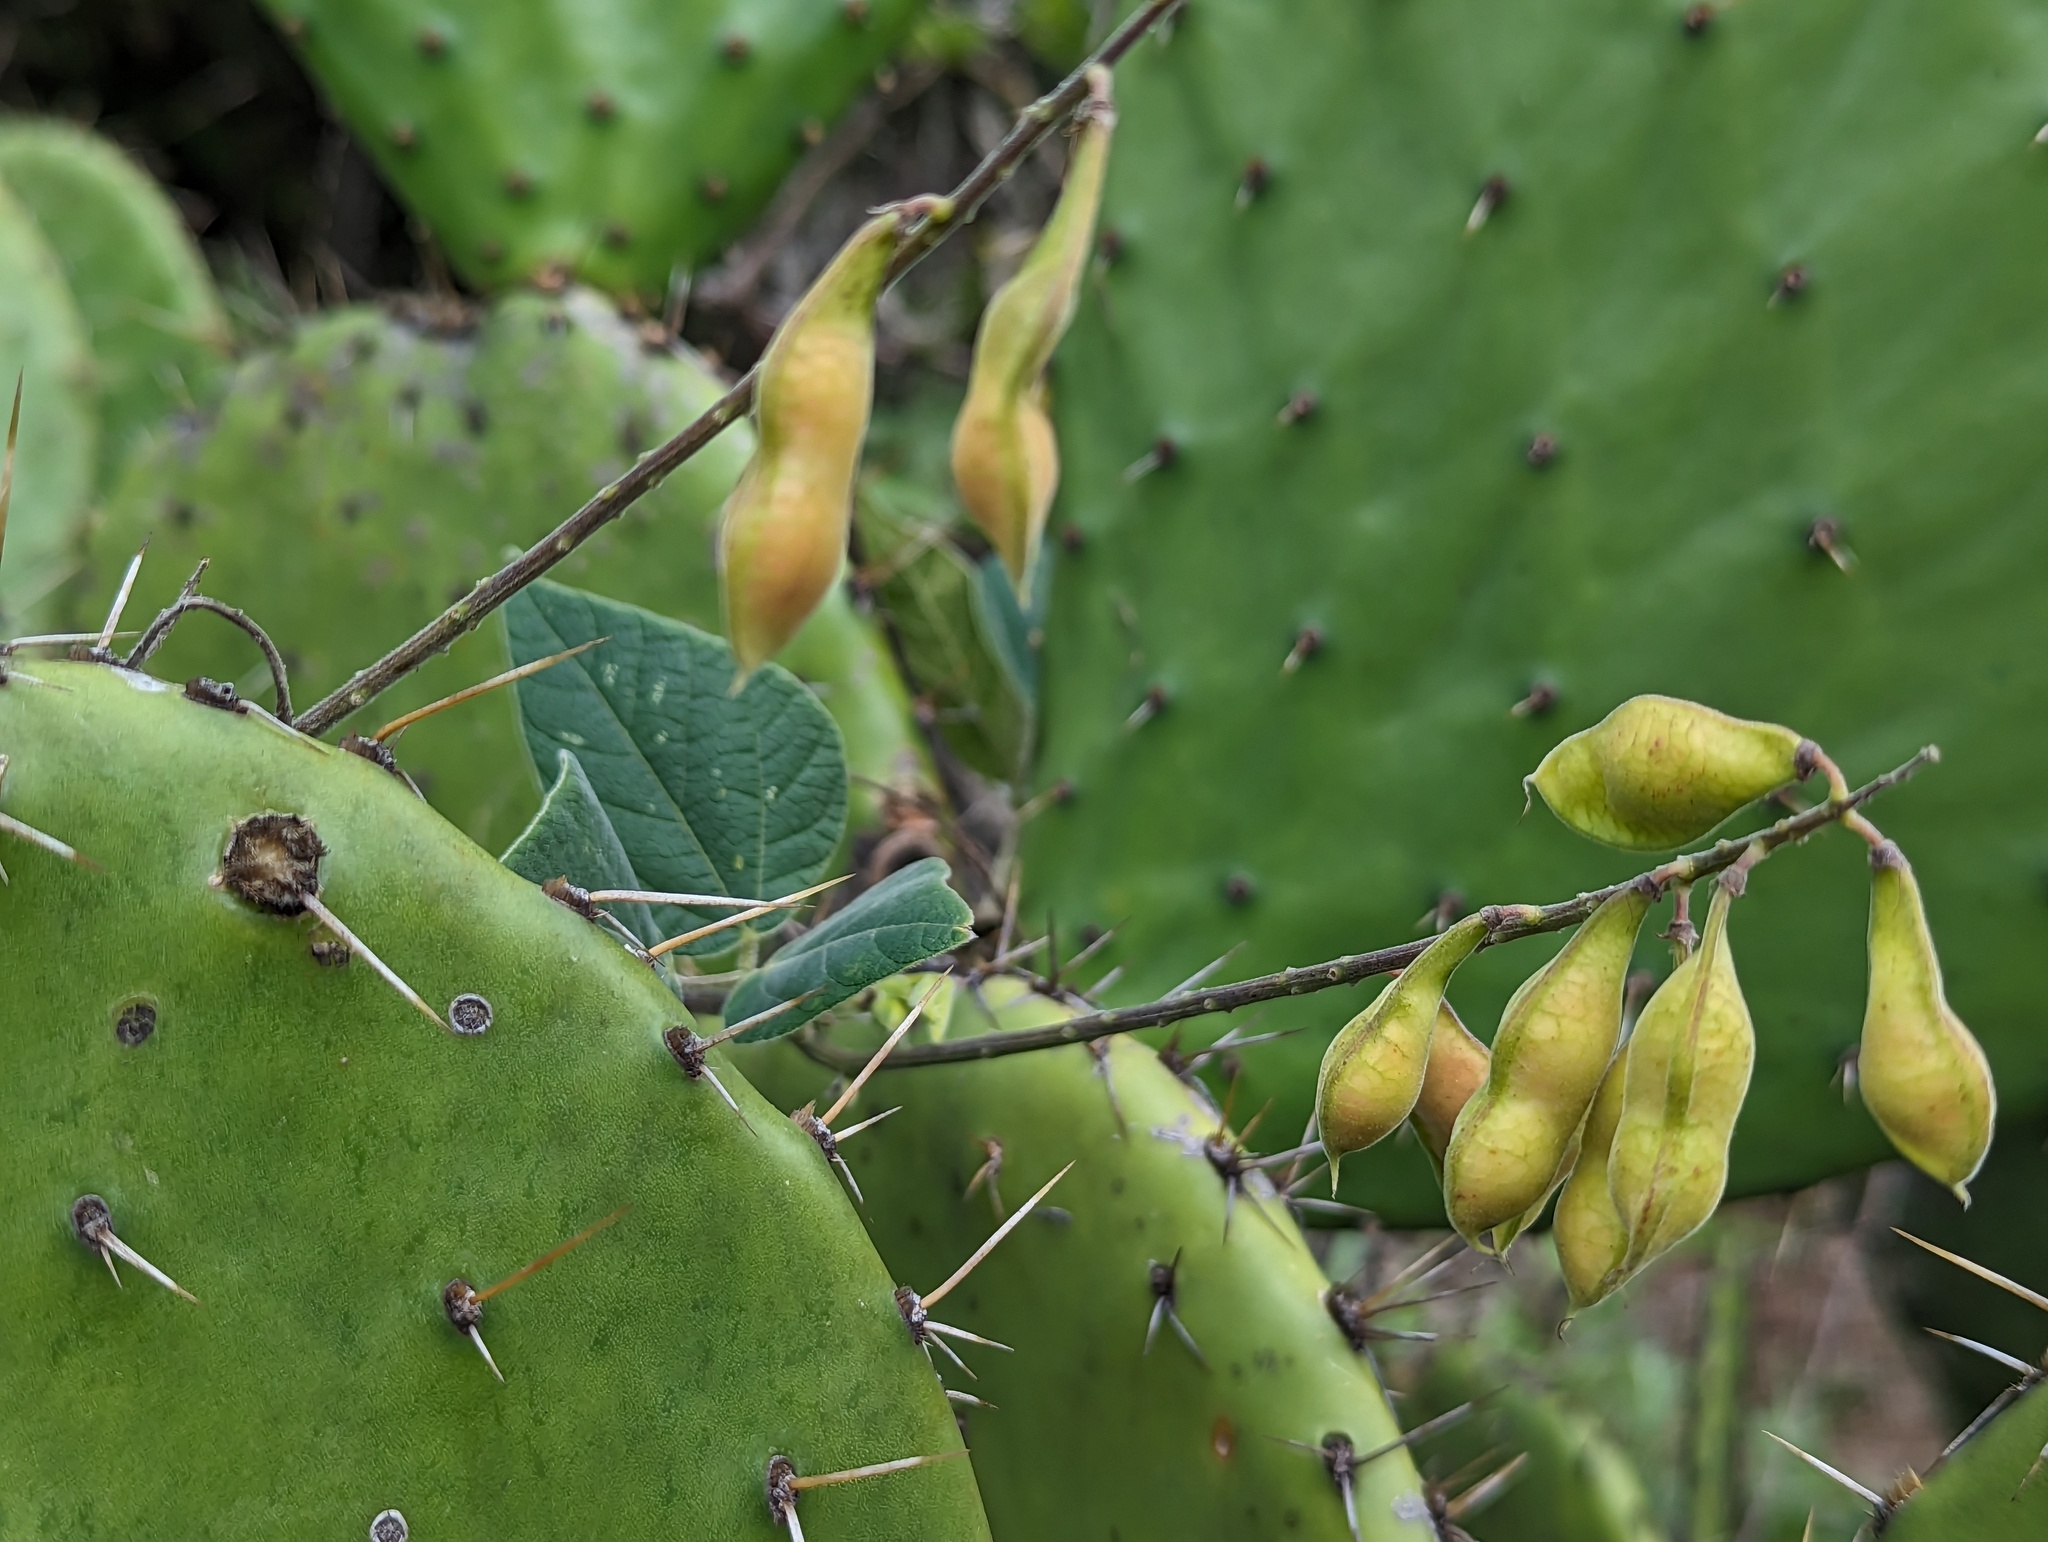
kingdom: Plantae
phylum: Tracheophyta
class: Magnoliopsida
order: Fabales
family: Fabaceae
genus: Rhynchosia
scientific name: Rhynchosia precatoria
